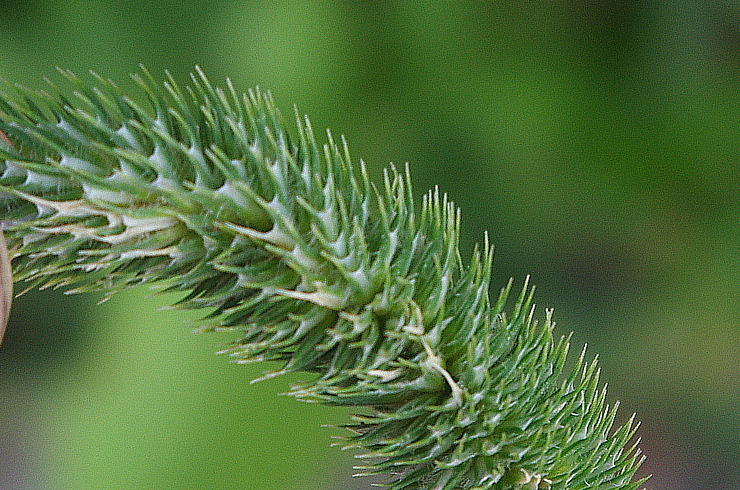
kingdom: Plantae
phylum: Tracheophyta
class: Liliopsida
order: Poales
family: Poaceae
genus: Phleum
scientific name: Phleum pratense
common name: Timothy grass
